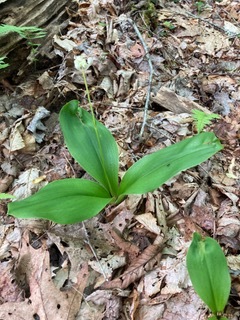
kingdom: Plantae
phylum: Tracheophyta
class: Liliopsida
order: Liliales
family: Liliaceae
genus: Clintonia
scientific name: Clintonia umbellulata
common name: Speckle wood-lily
